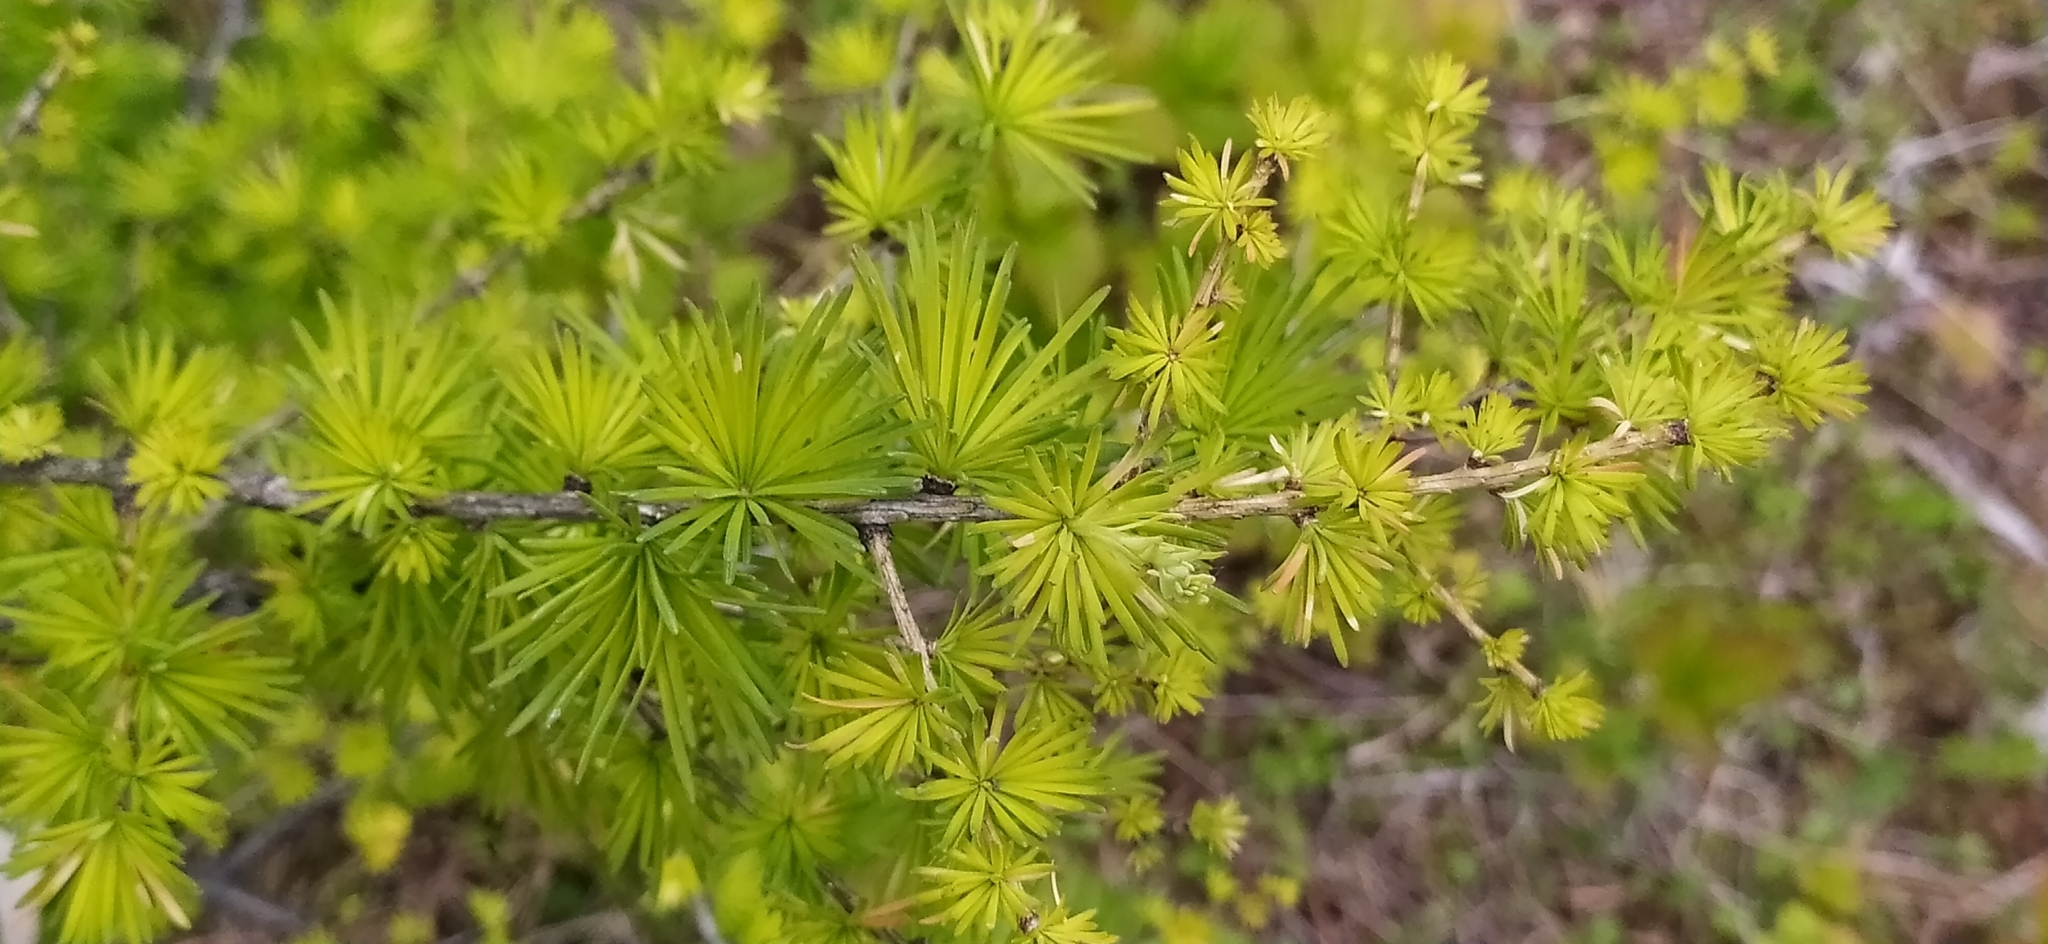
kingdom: Plantae
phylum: Tracheophyta
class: Pinopsida
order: Pinales
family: Pinaceae
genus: Larix
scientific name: Larix sibirica
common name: Siberian larch
